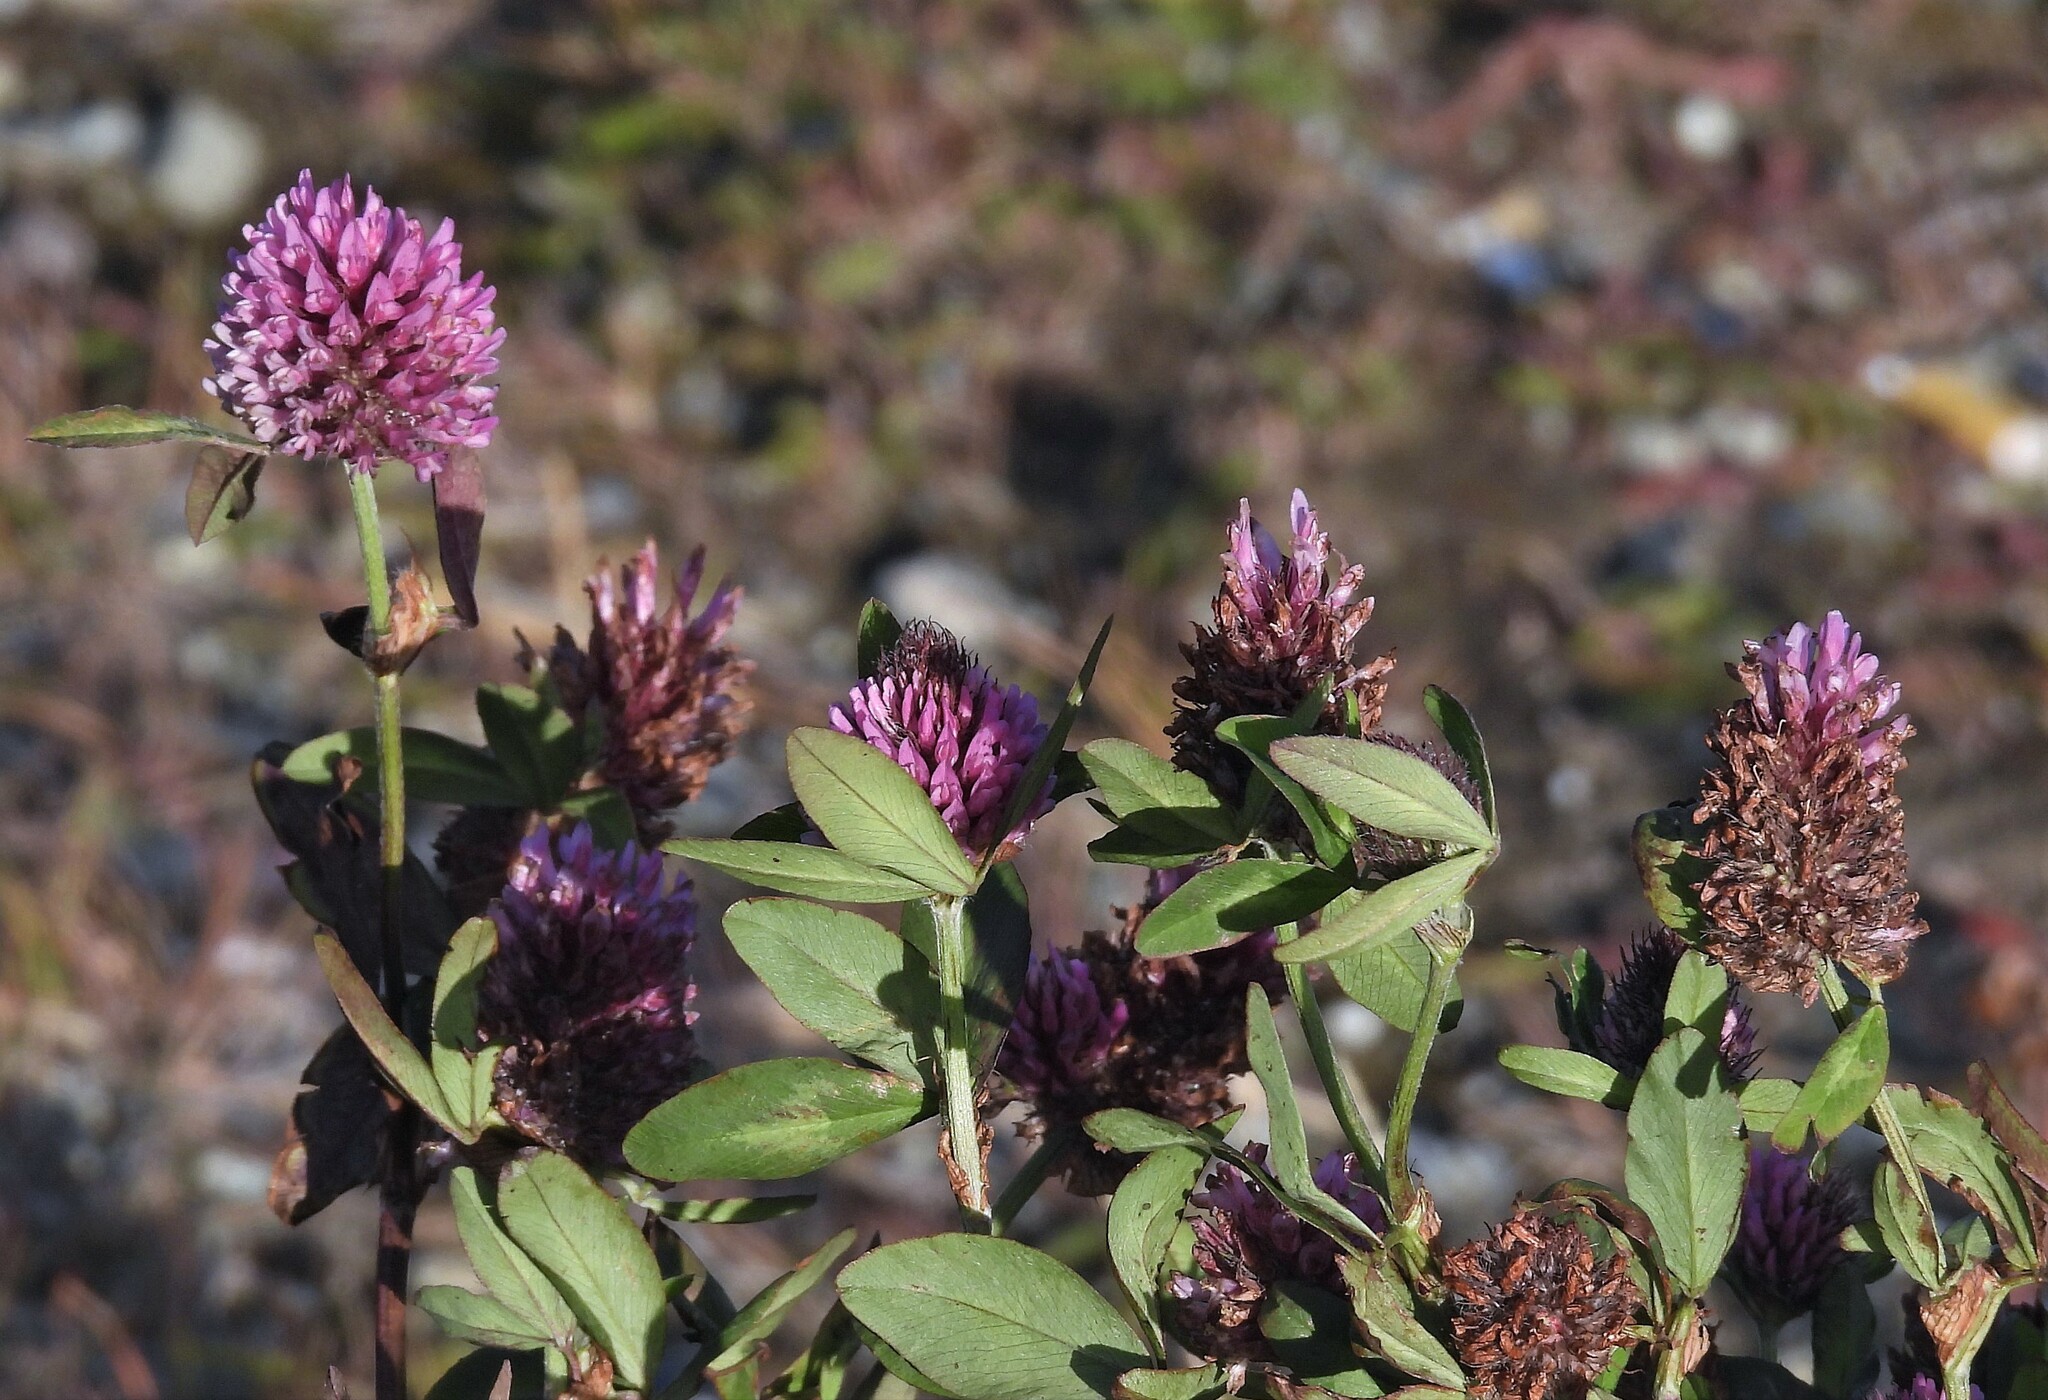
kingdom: Plantae
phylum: Tracheophyta
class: Magnoliopsida
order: Fabales
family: Fabaceae
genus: Trifolium
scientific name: Trifolium pratense
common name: Red clover
